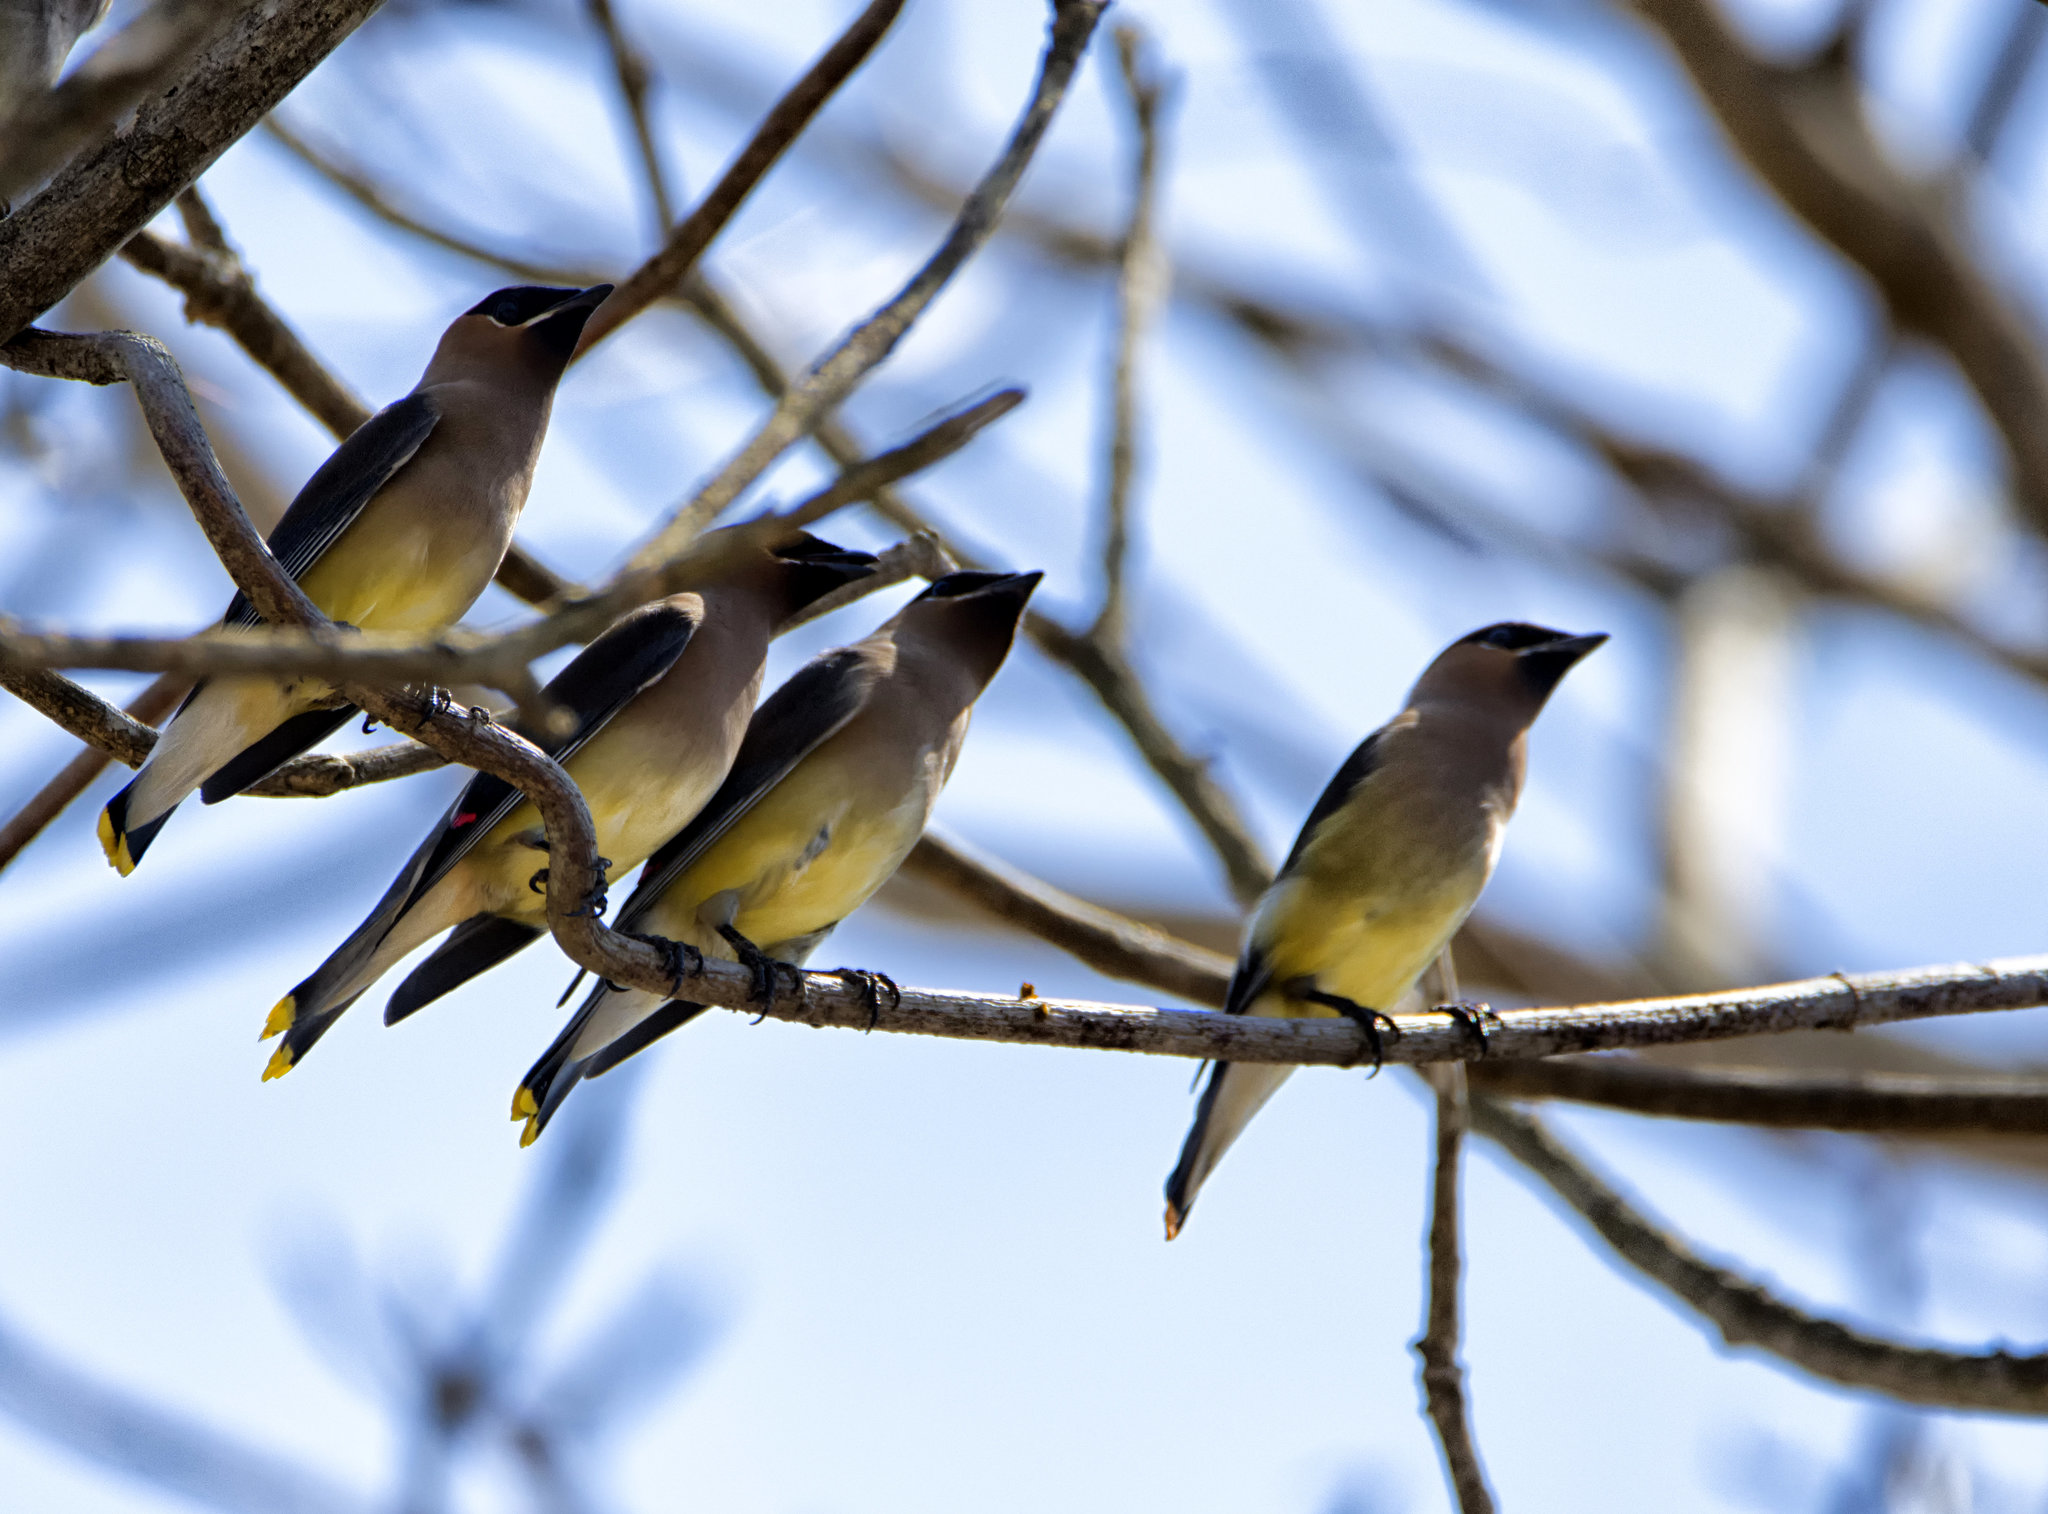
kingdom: Animalia
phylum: Chordata
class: Aves
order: Passeriformes
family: Bombycillidae
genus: Bombycilla
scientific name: Bombycilla cedrorum
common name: Cedar waxwing
